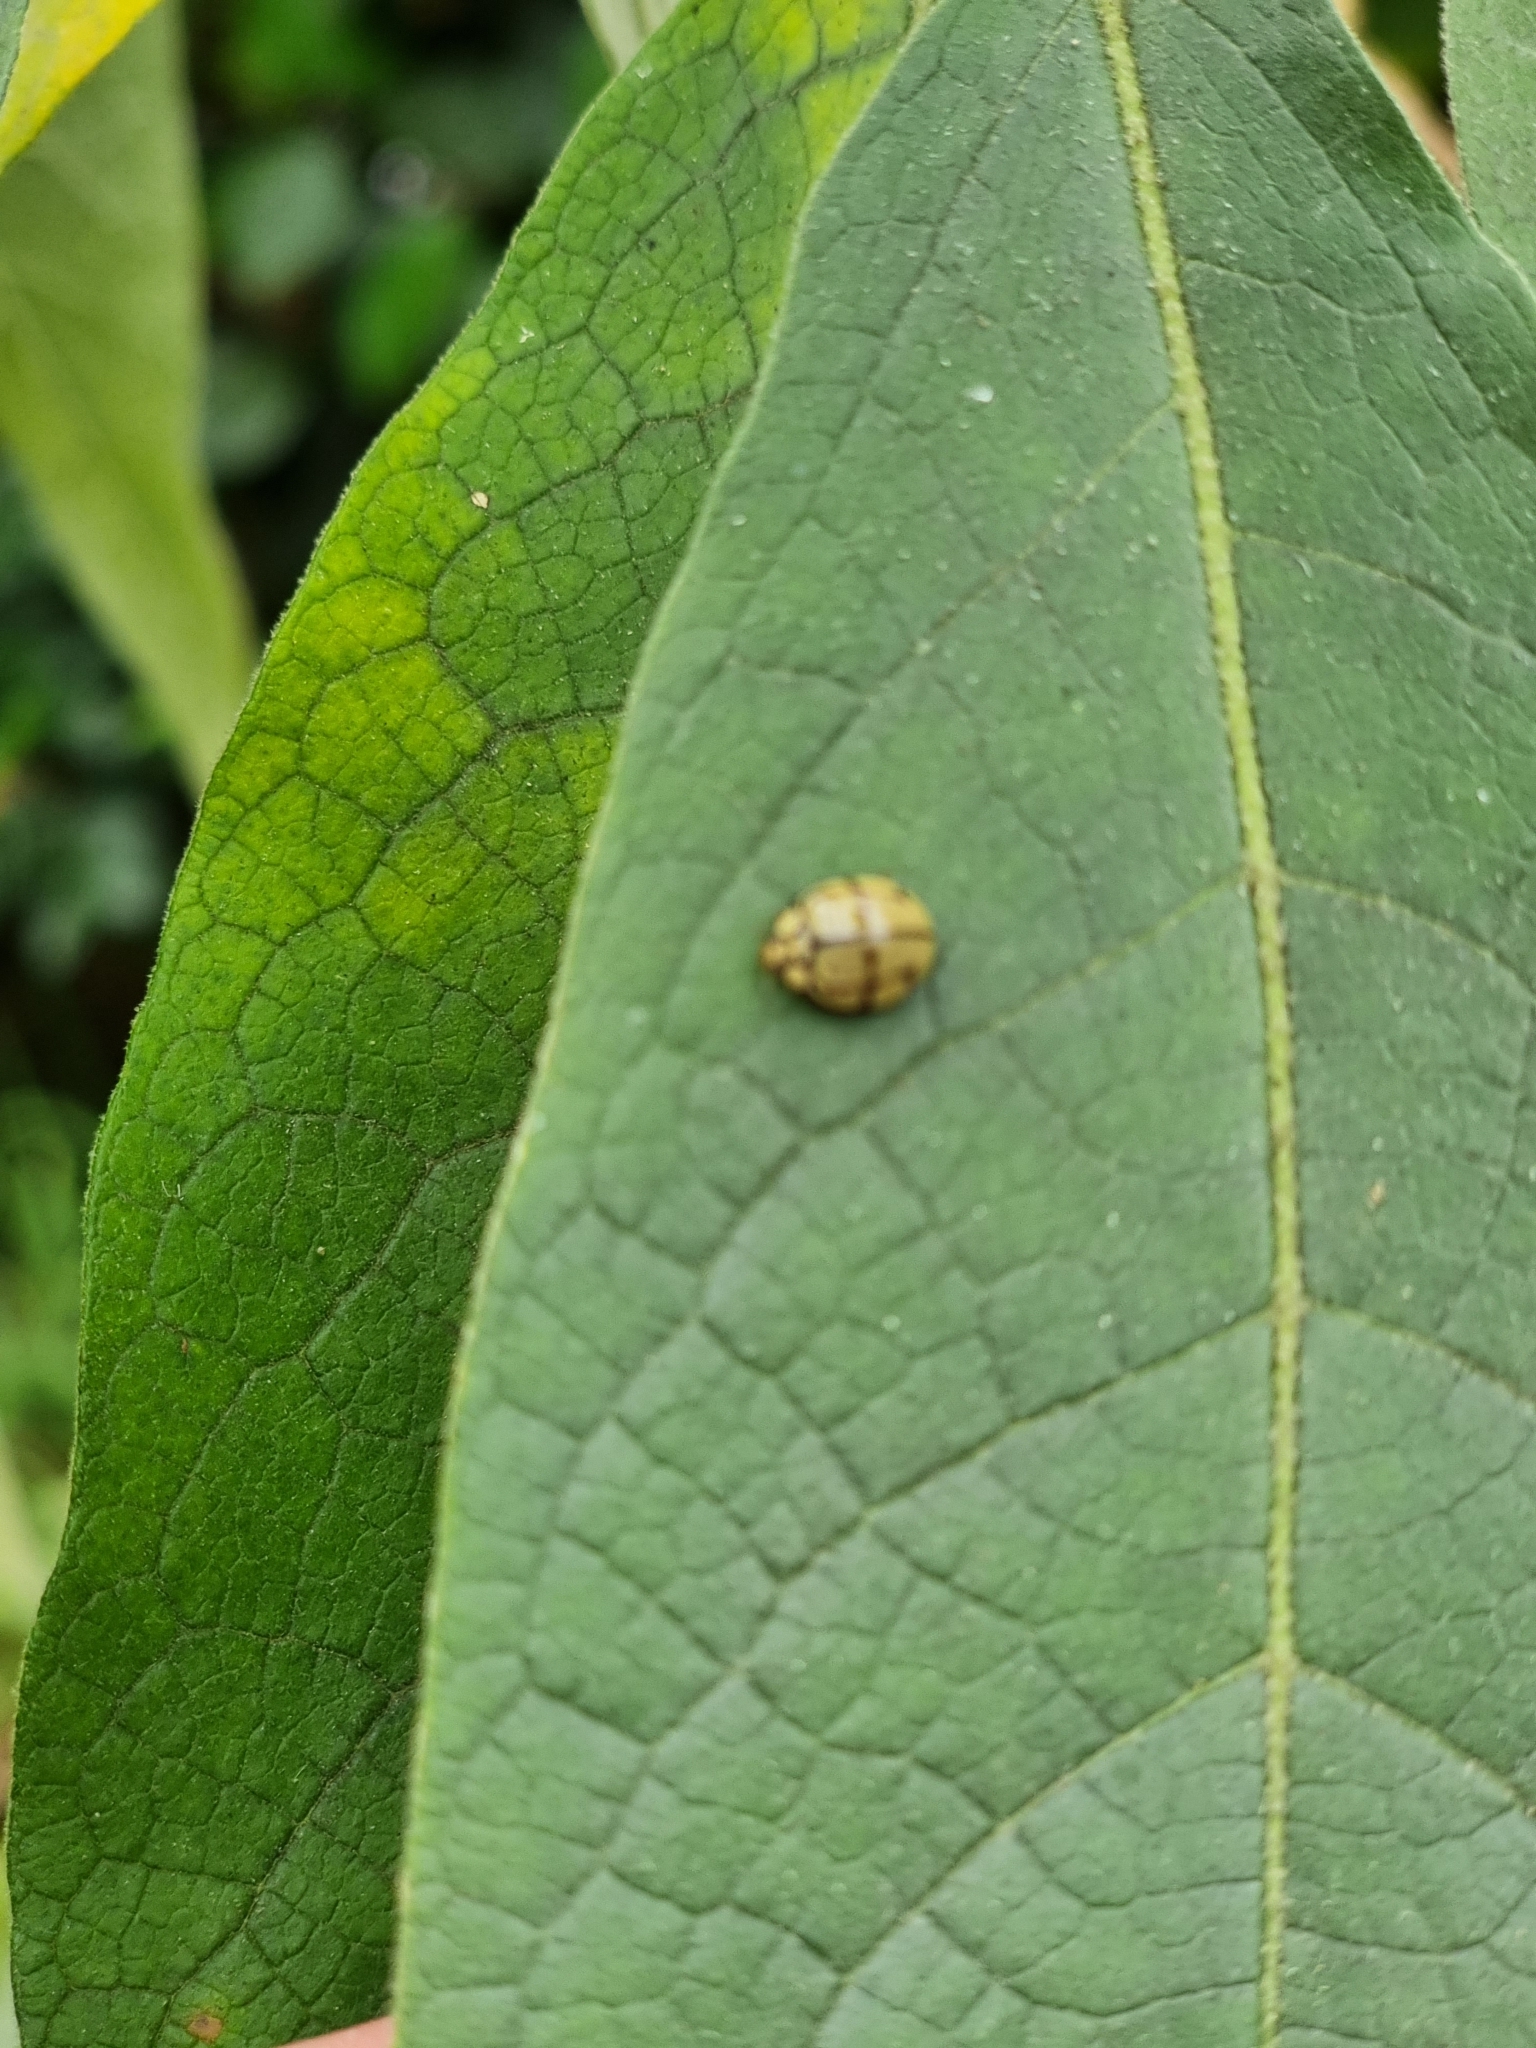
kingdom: Animalia
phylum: Arthropoda
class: Insecta
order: Coleoptera
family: Coccinellidae
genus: Harmonia
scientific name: Harmonia
